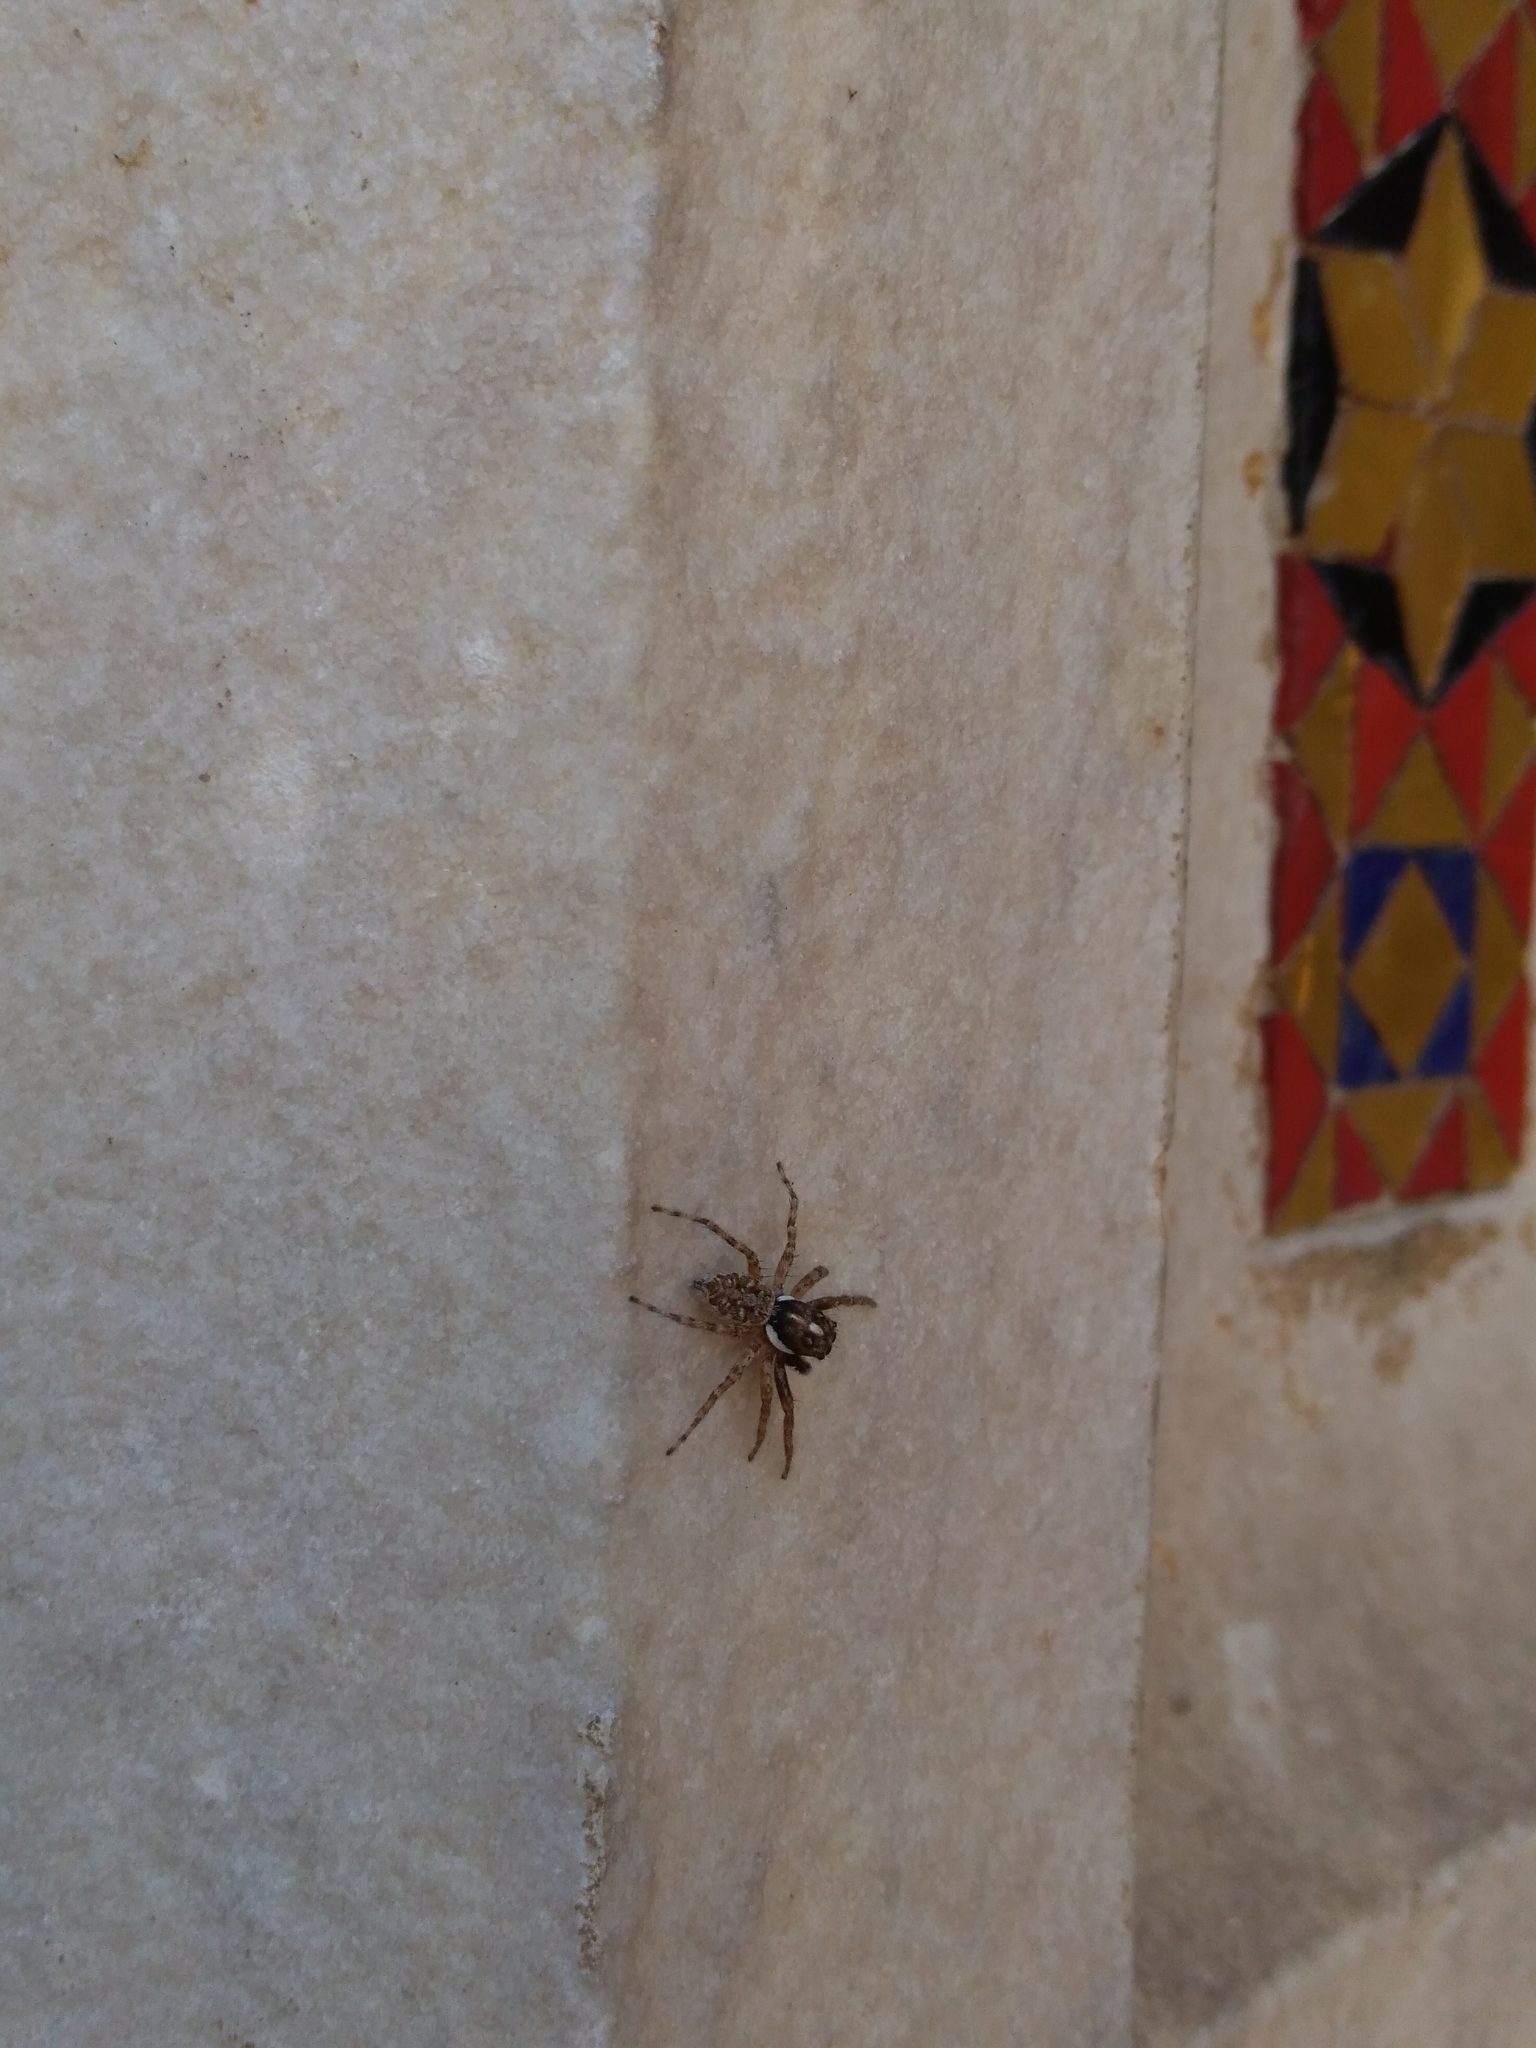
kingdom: Animalia
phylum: Arthropoda
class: Arachnida
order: Araneae
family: Salticidae
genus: Menemerus
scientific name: Menemerus semilimbatus
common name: Jumping spider
